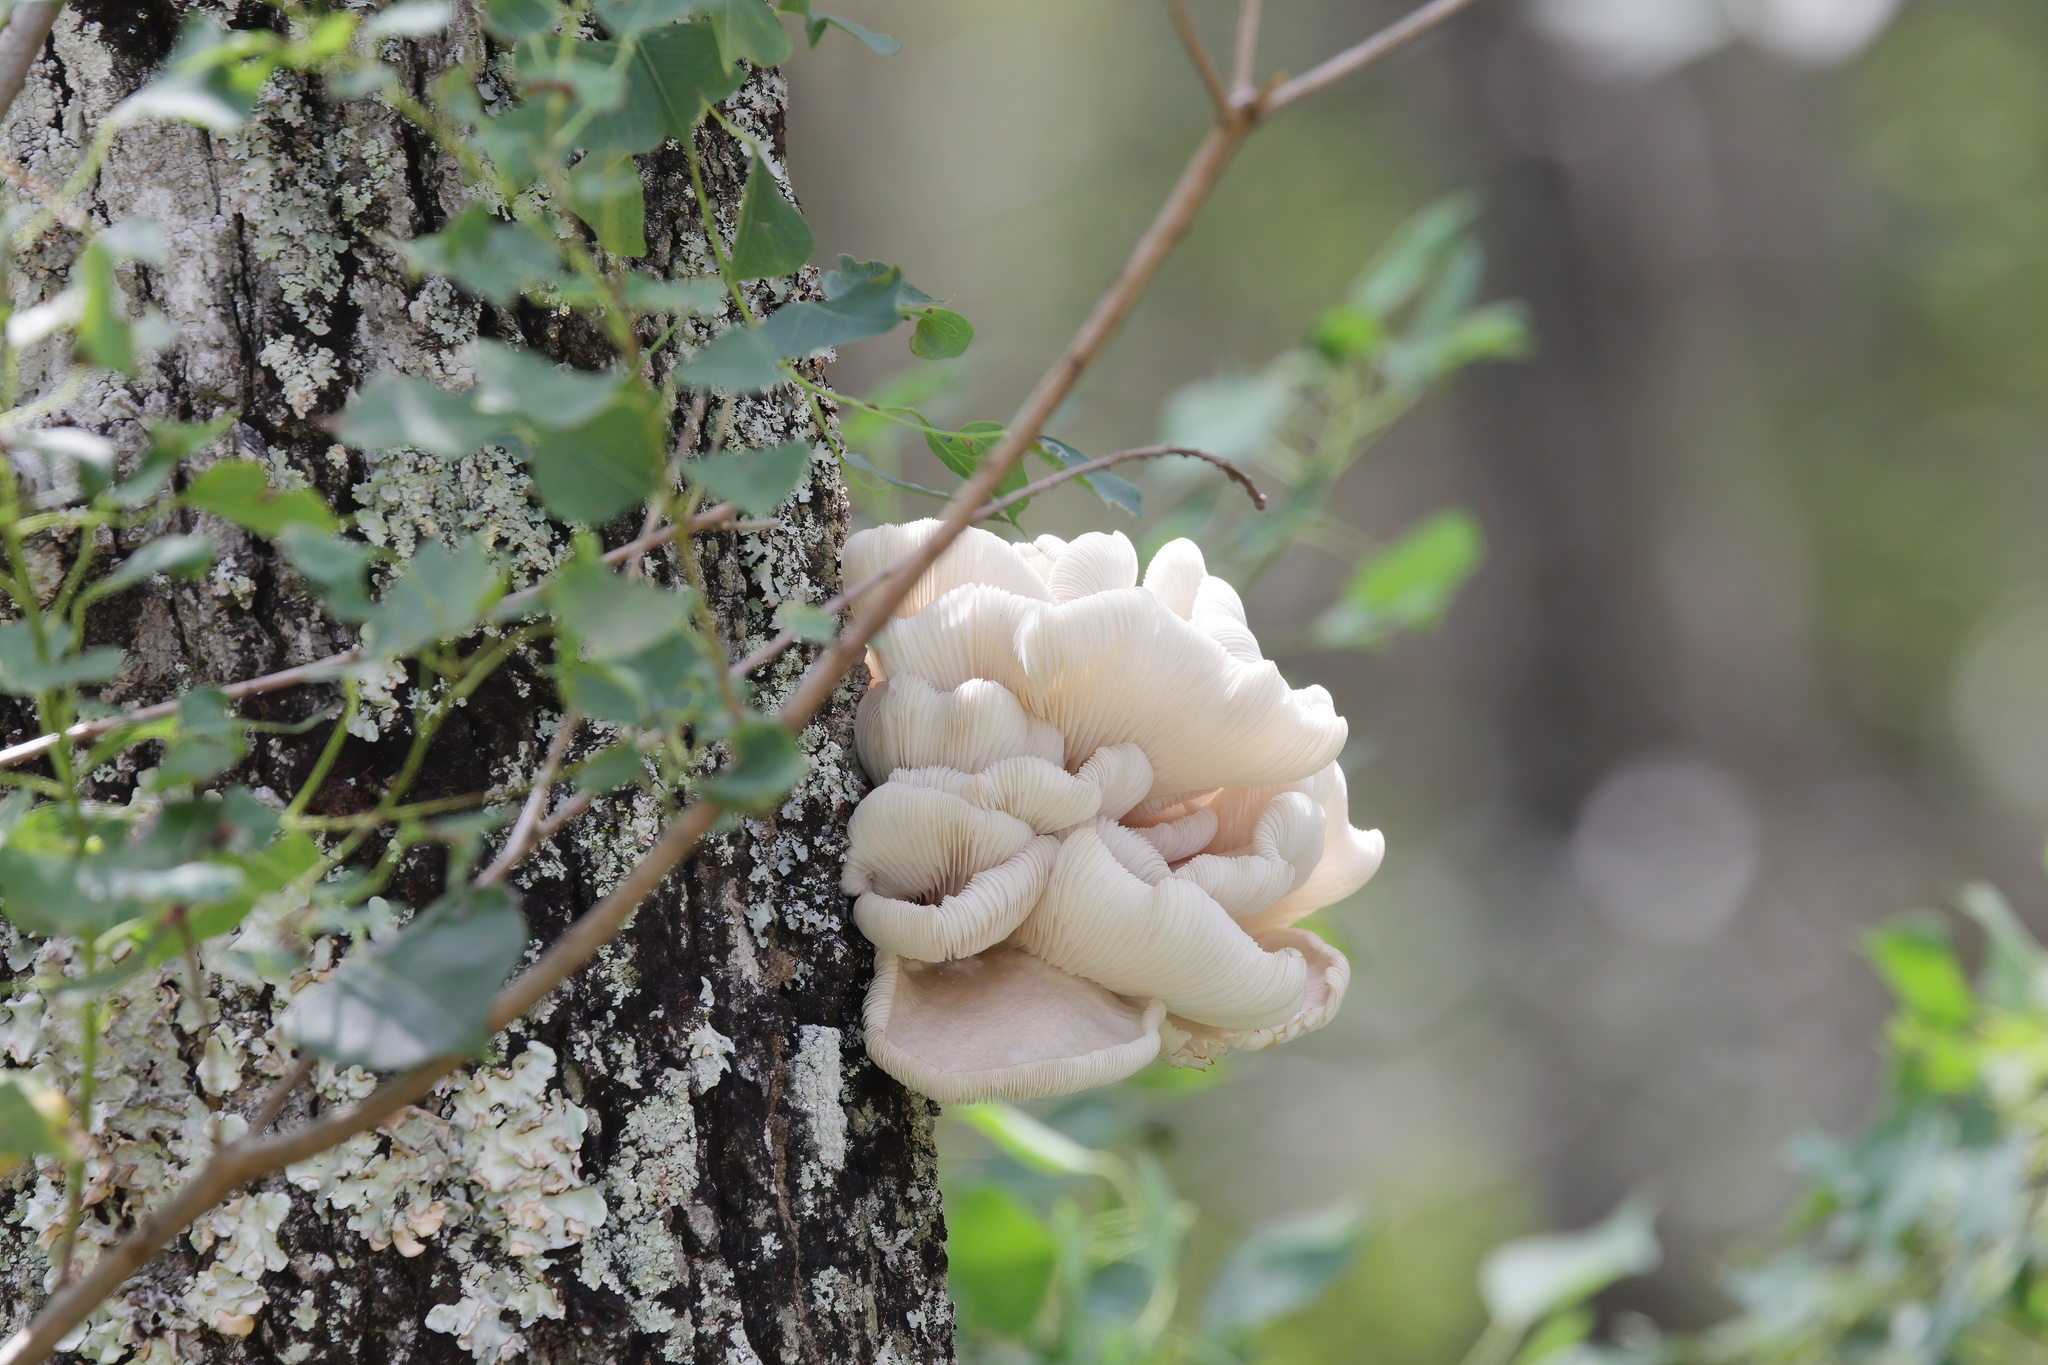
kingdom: Fungi
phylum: Basidiomycota
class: Agaricomycetes
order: Agaricales
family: Pleurotaceae
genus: Pleurotus
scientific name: Pleurotus ostreatus
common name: Oyster mushroom
